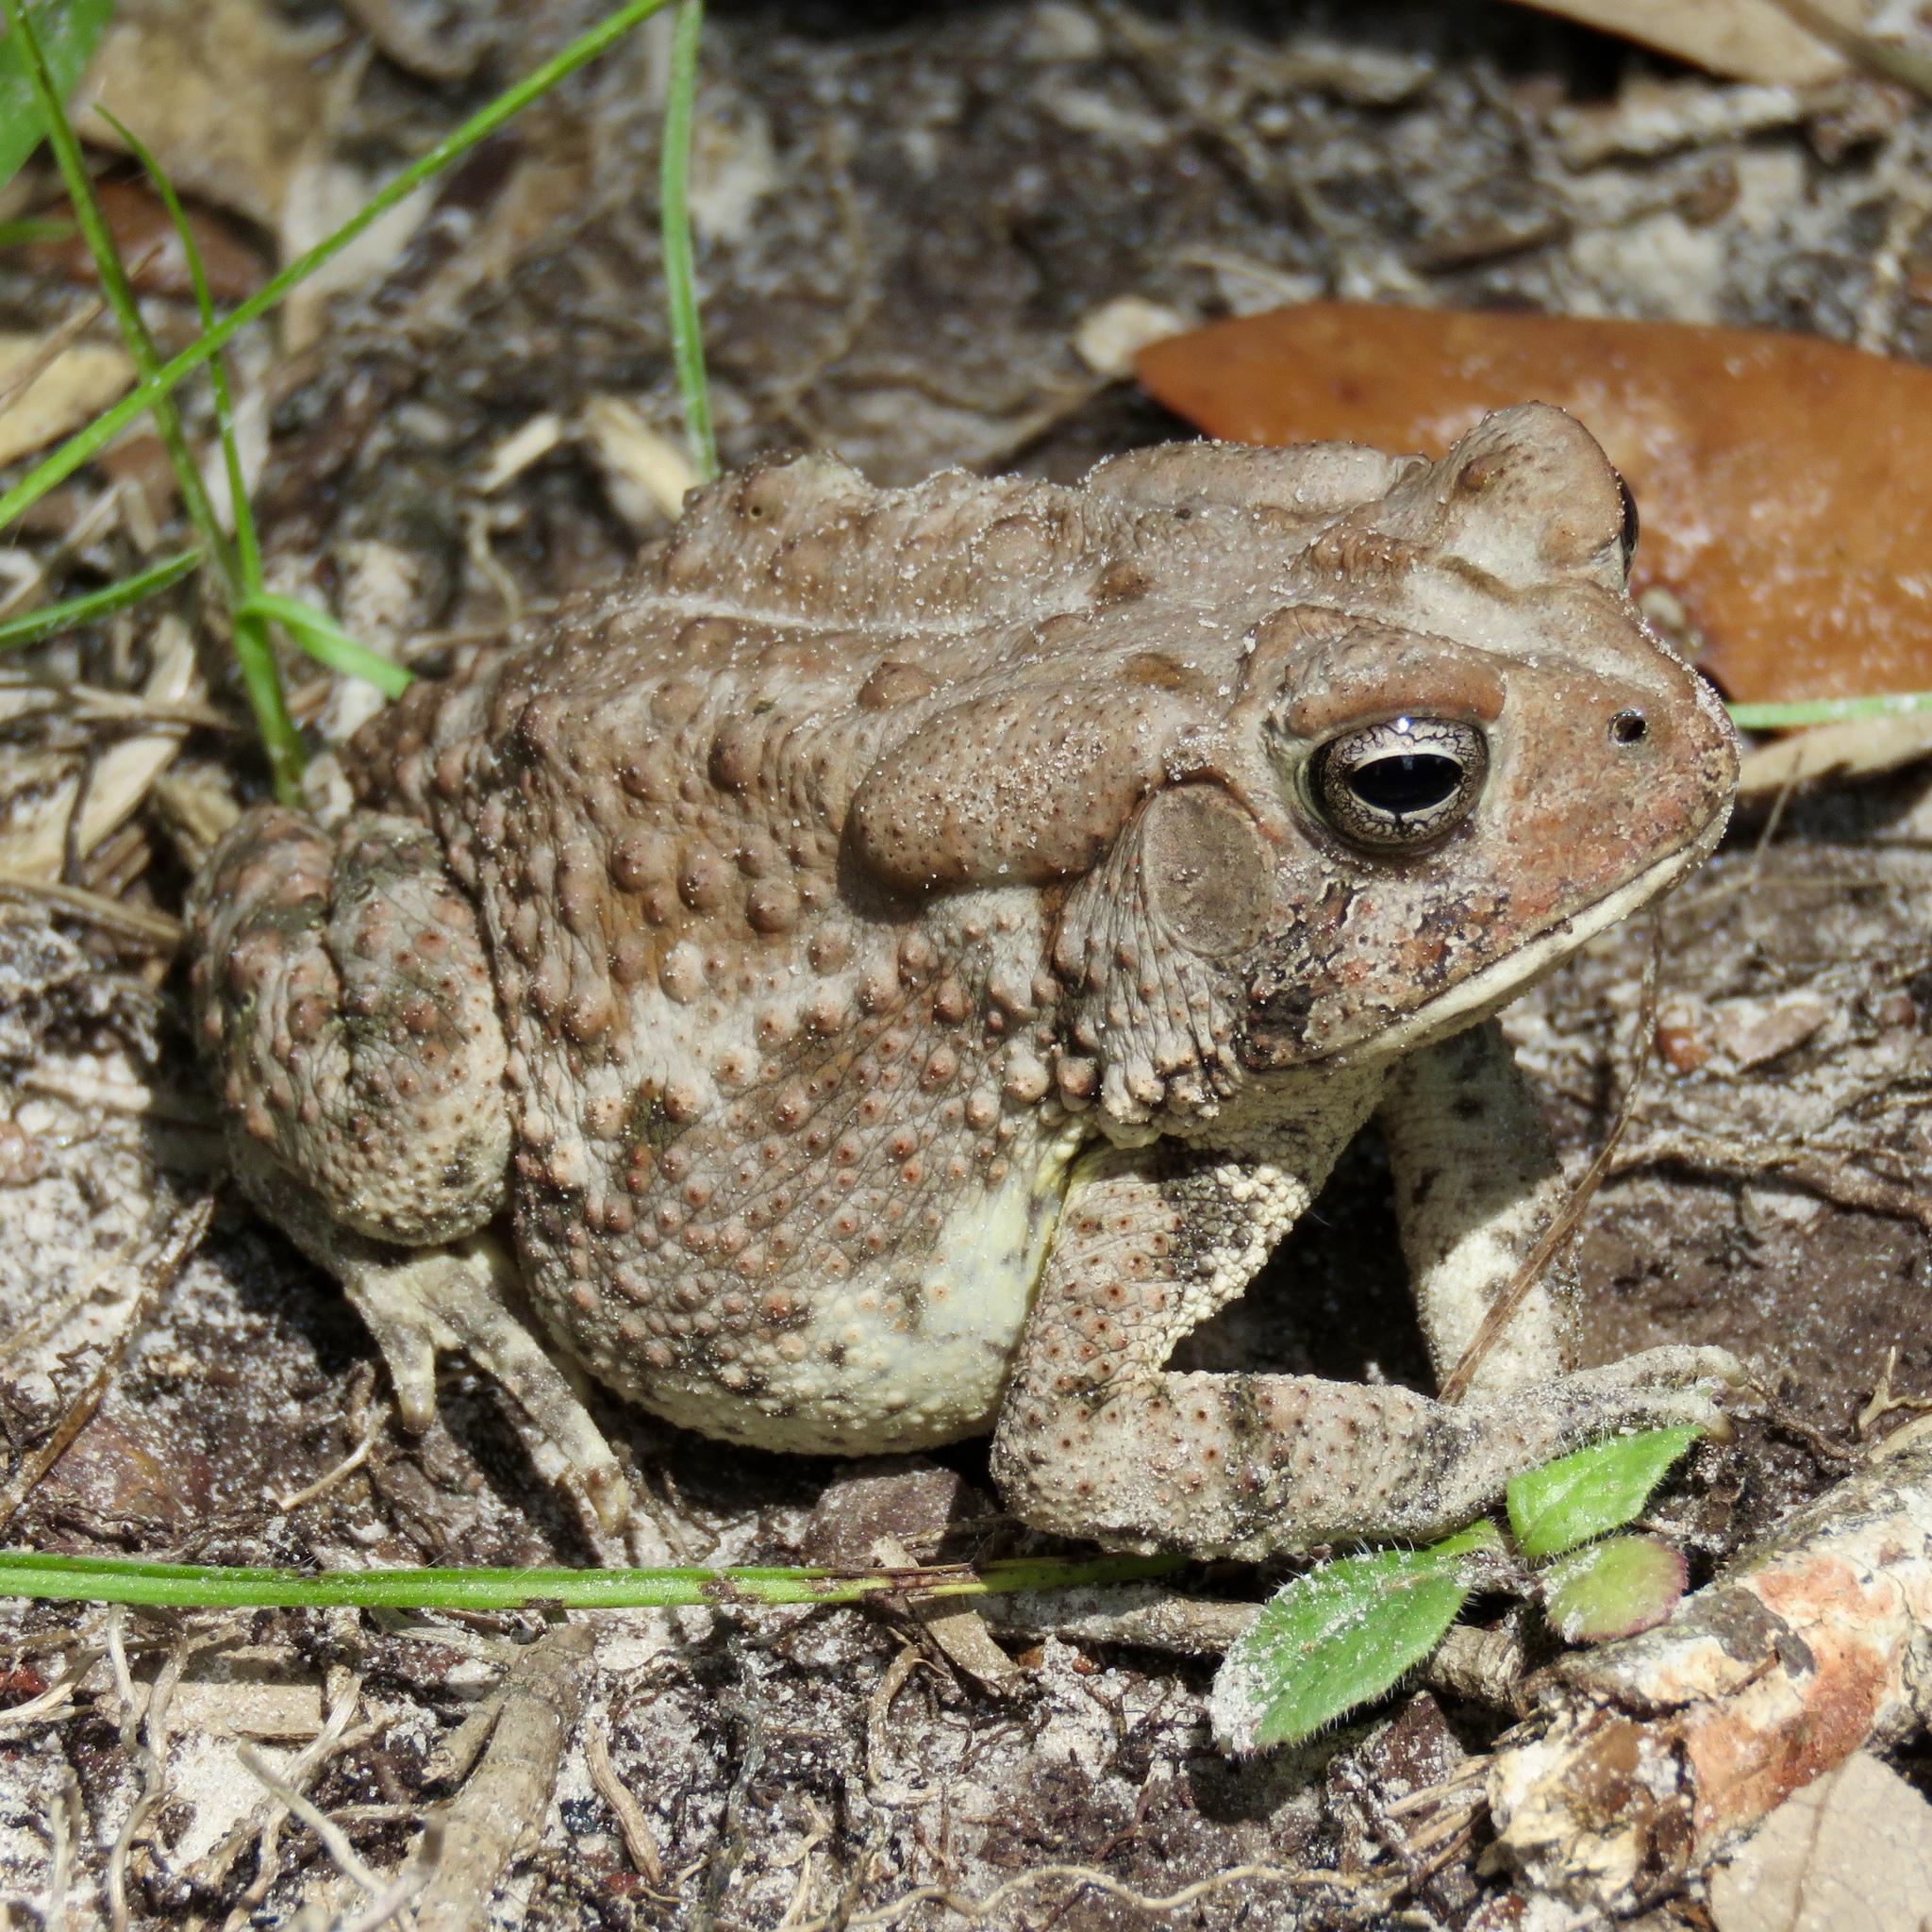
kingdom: Animalia
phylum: Chordata
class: Amphibia
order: Anura
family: Bufonidae
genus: Anaxyrus
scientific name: Anaxyrus
